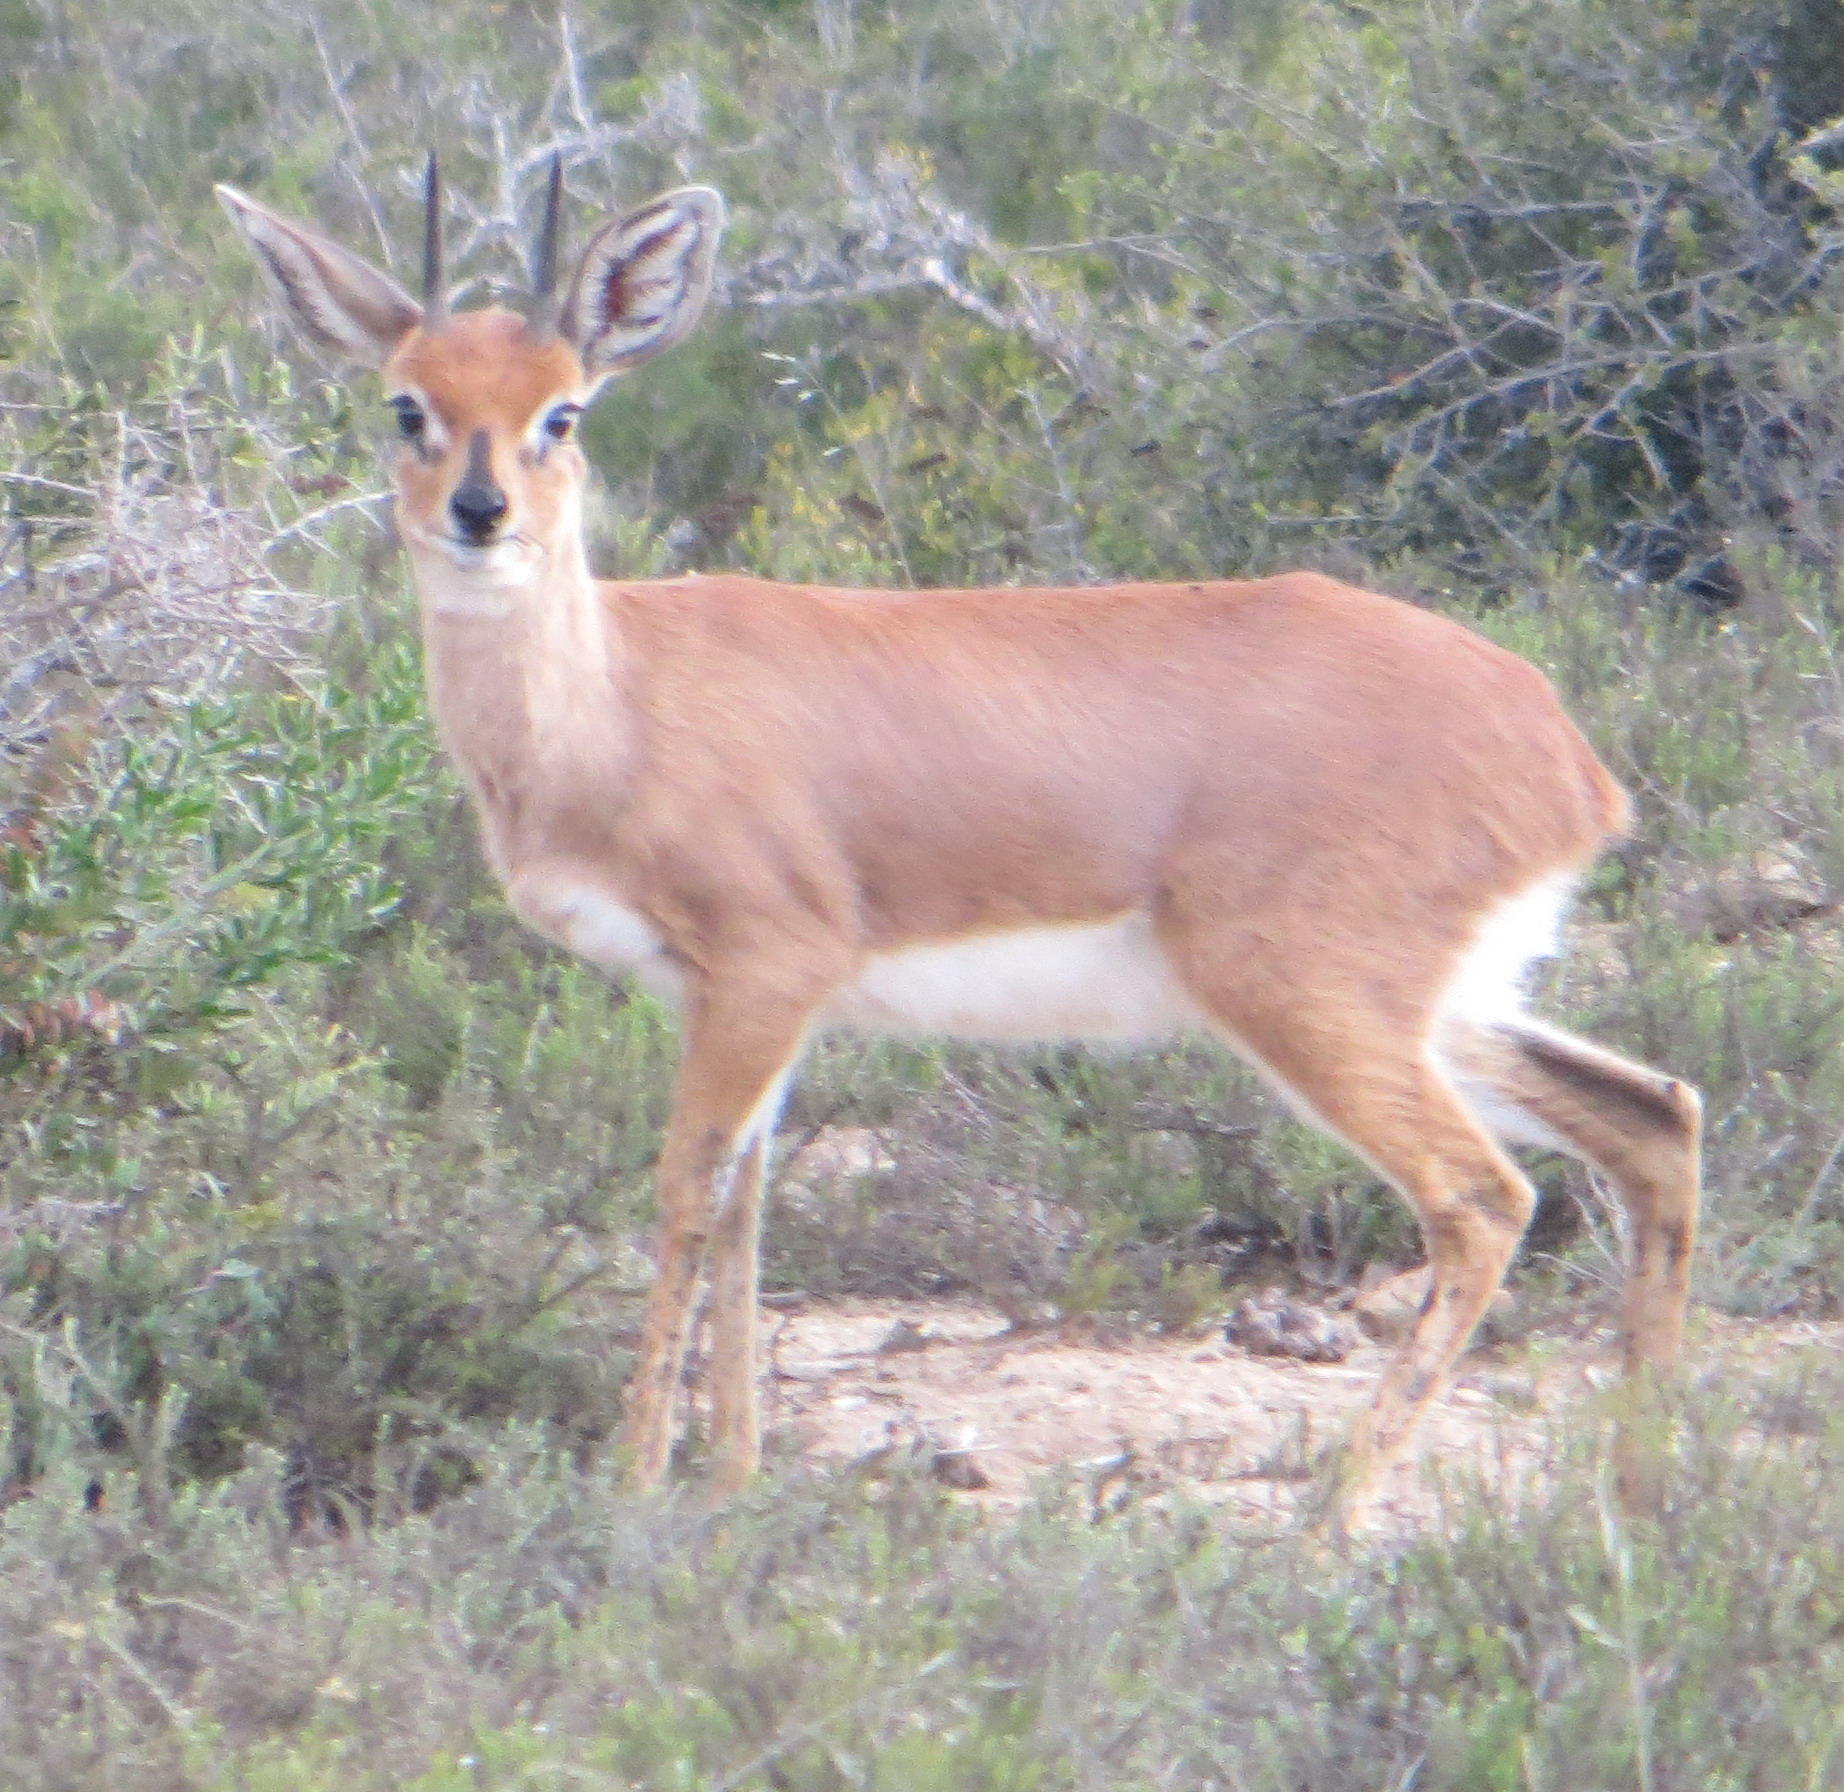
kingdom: Animalia
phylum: Chordata
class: Mammalia
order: Artiodactyla
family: Bovidae
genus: Raphicerus
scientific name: Raphicerus campestris
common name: Steenbok
